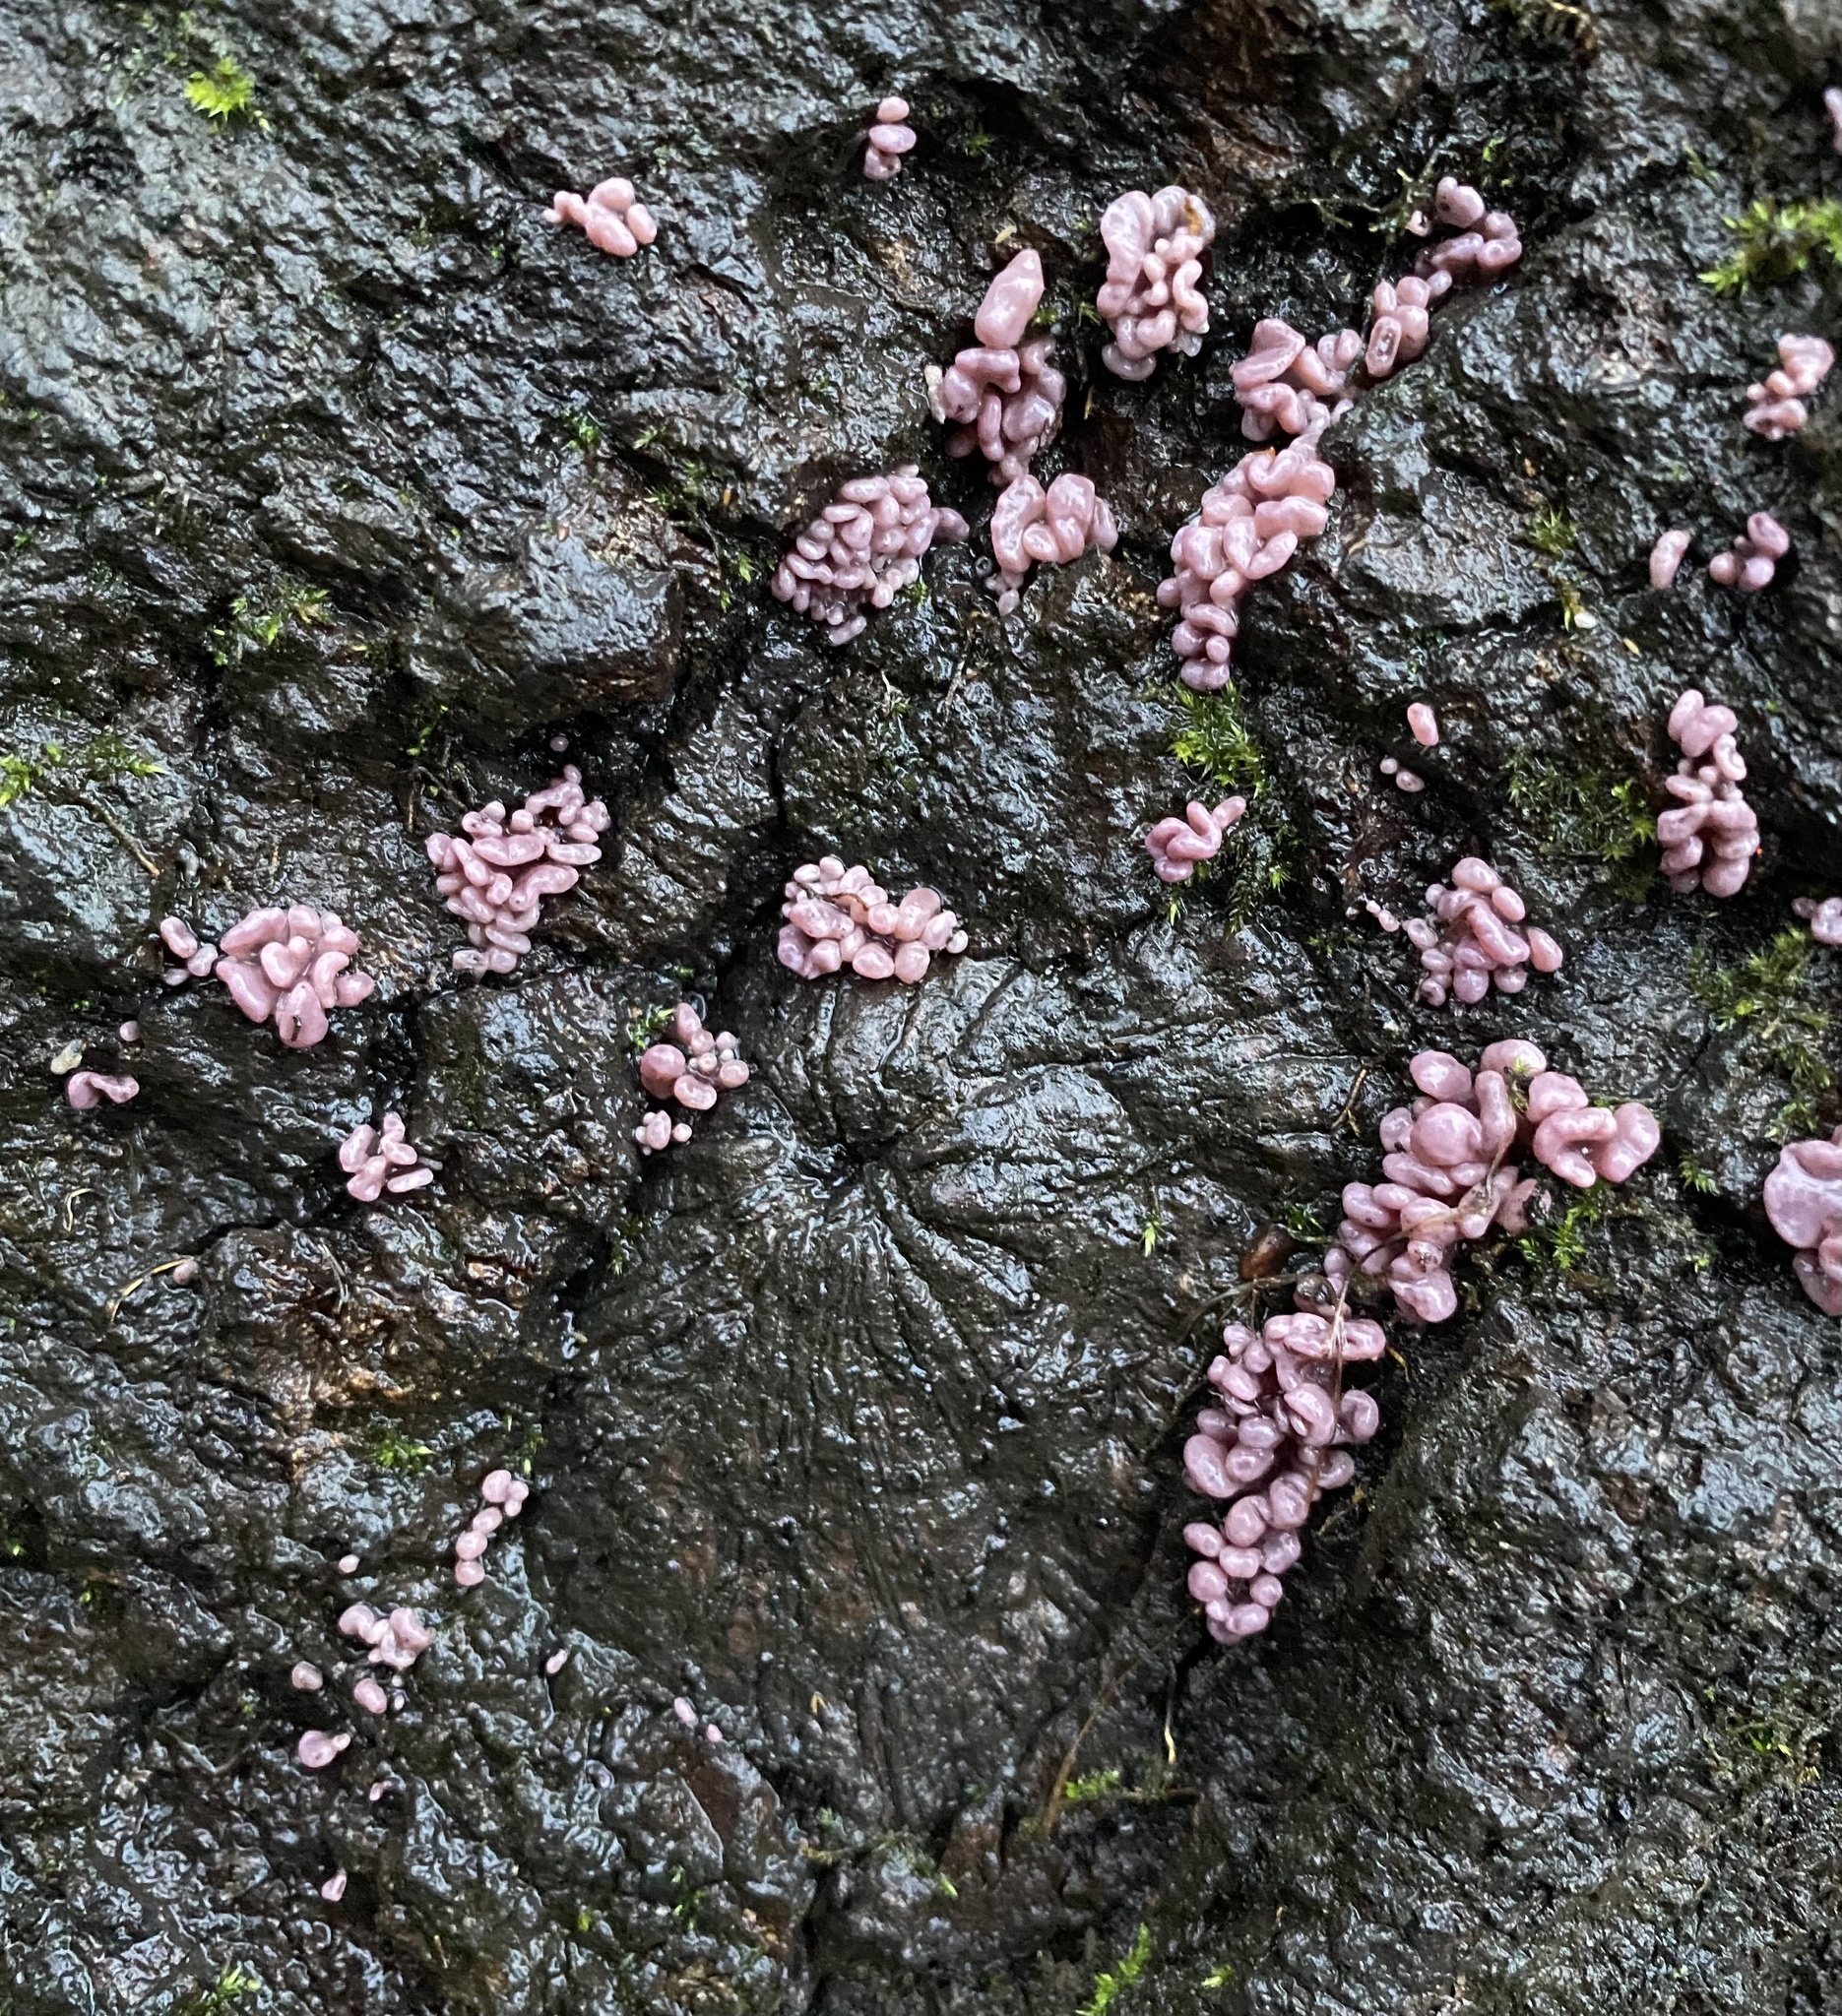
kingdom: Fungi
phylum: Ascomycota
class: Leotiomycetes
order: Helotiales
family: Gelatinodiscaceae
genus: Ascocoryne
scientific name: Ascocoryne sarcoides
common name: Purple jellydisc
